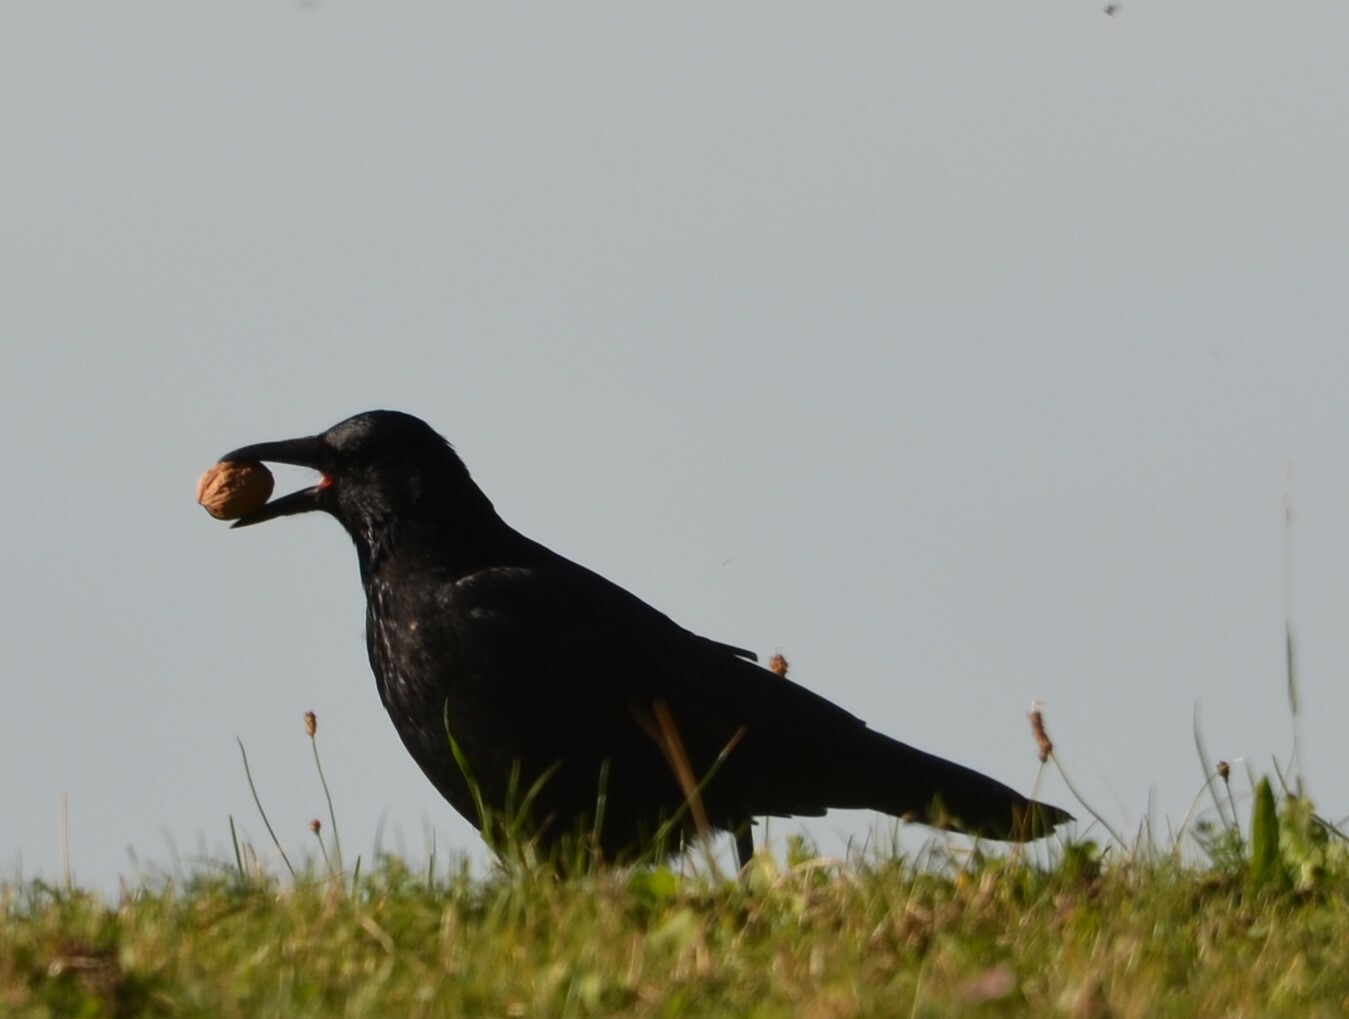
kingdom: Animalia
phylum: Chordata
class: Aves
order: Passeriformes
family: Corvidae
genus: Corvus
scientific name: Corvus corone
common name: Carrion crow
